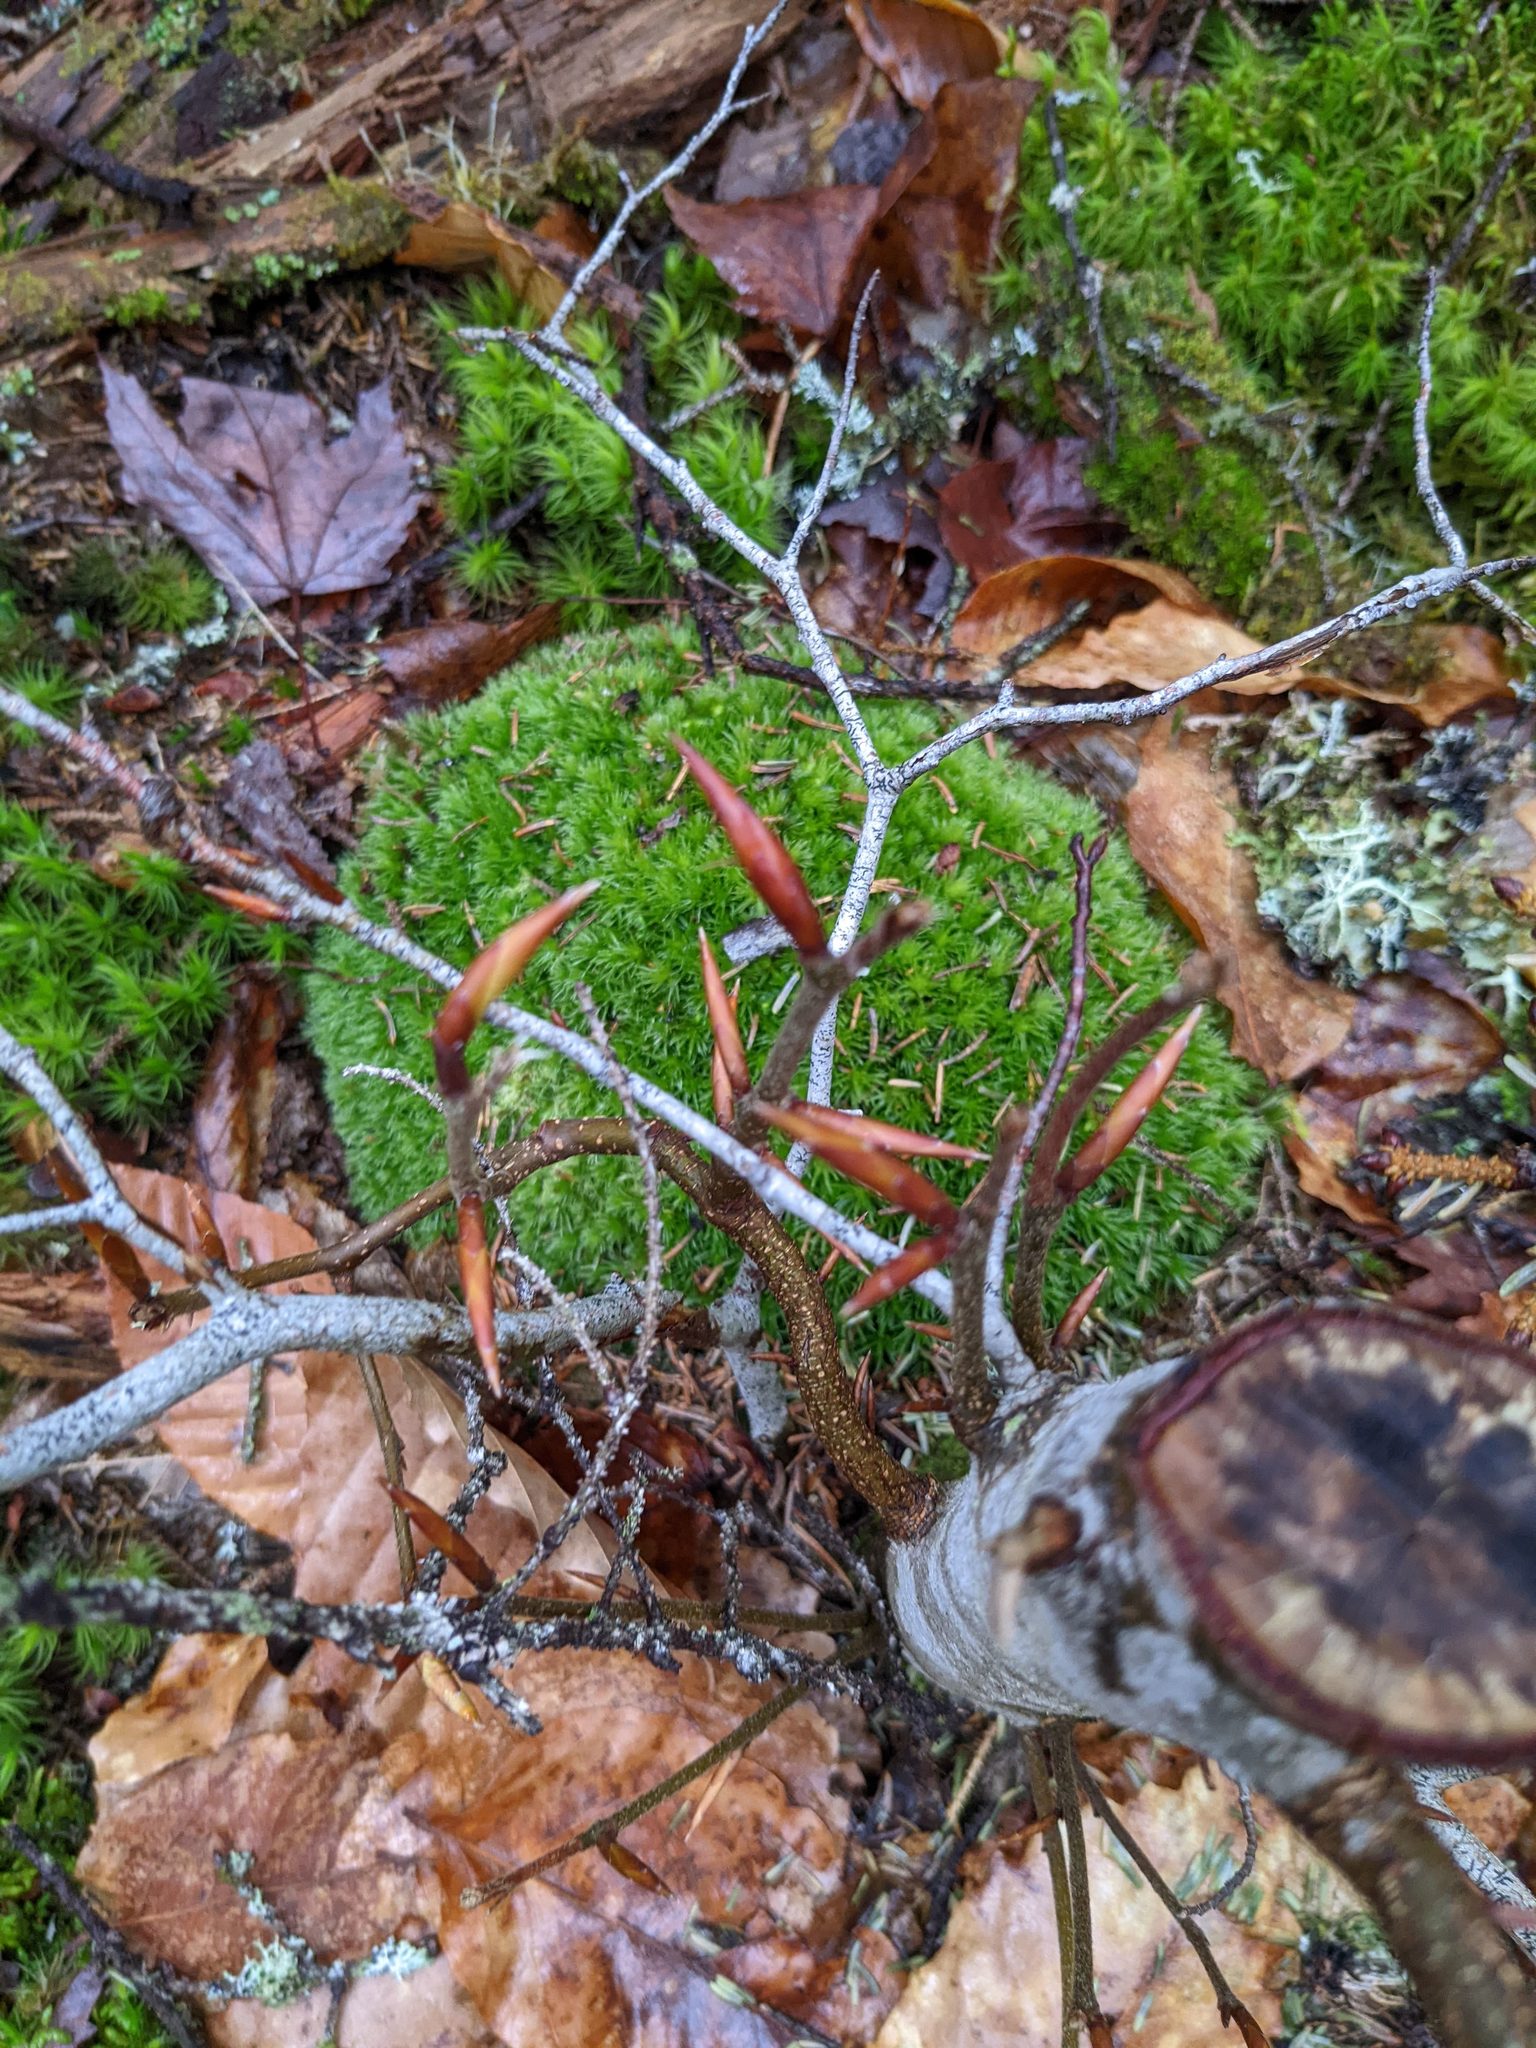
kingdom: Plantae
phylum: Tracheophyta
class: Magnoliopsida
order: Fagales
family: Fagaceae
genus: Fagus
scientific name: Fagus grandifolia
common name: American beech
